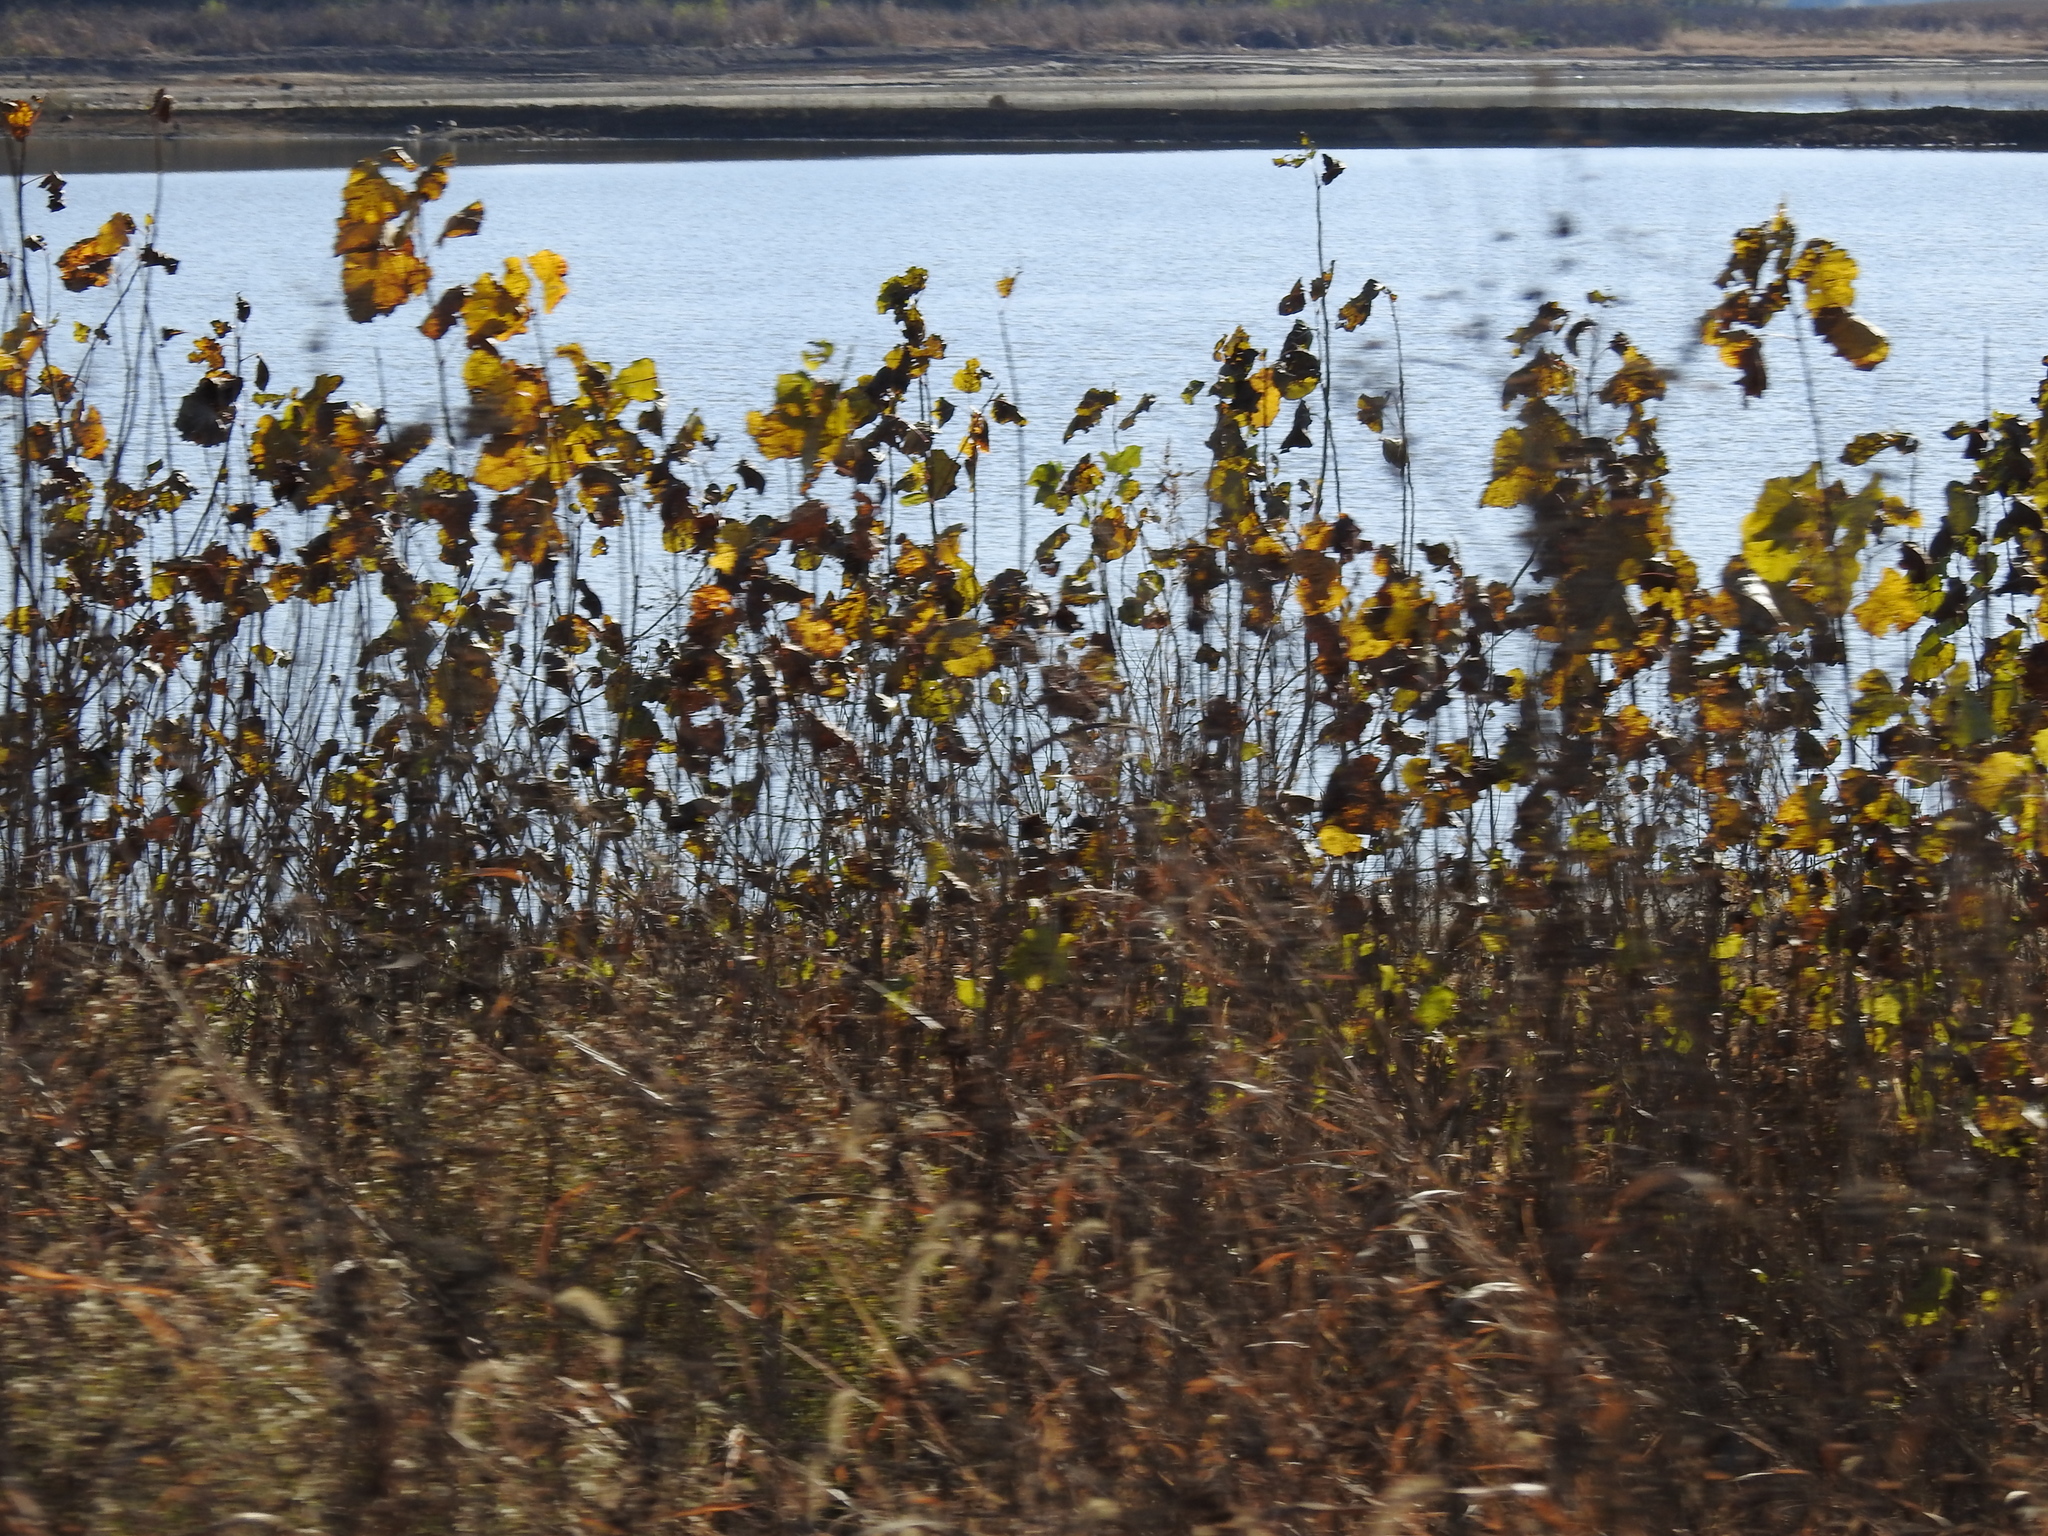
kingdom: Plantae
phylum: Tracheophyta
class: Magnoliopsida
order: Malpighiales
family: Salicaceae
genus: Populus
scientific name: Populus deltoides
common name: Eastern cottonwood
